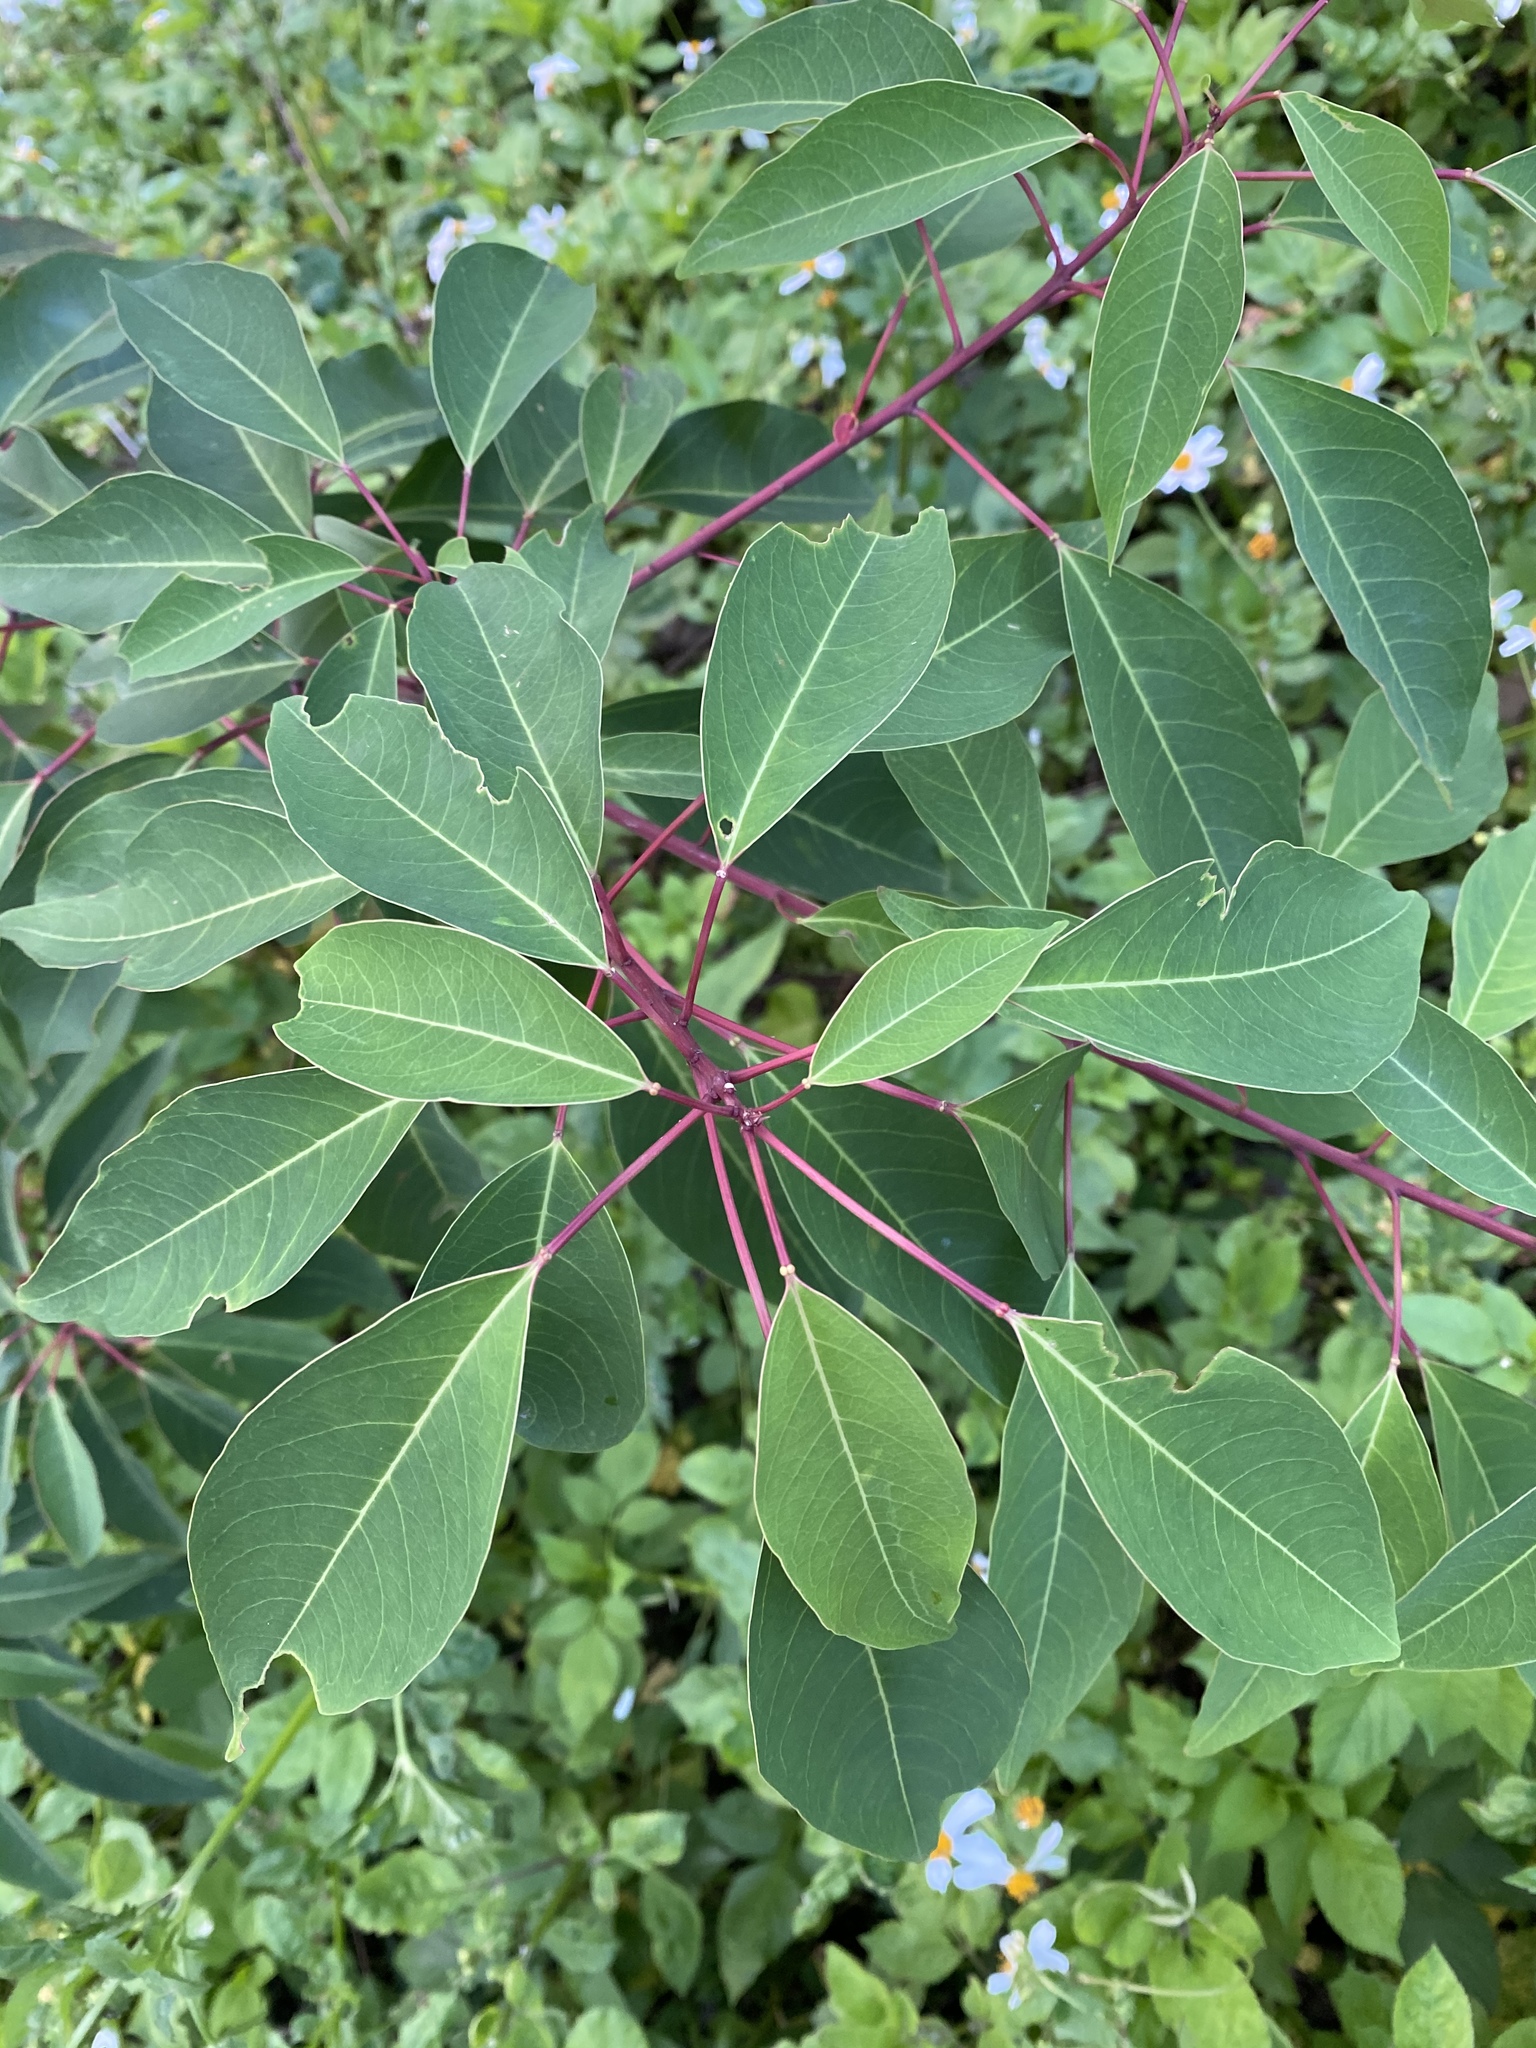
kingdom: Plantae
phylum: Tracheophyta
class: Magnoliopsida
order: Malpighiales
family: Euphorbiaceae
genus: Triadica
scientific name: Triadica cochinchinensis
